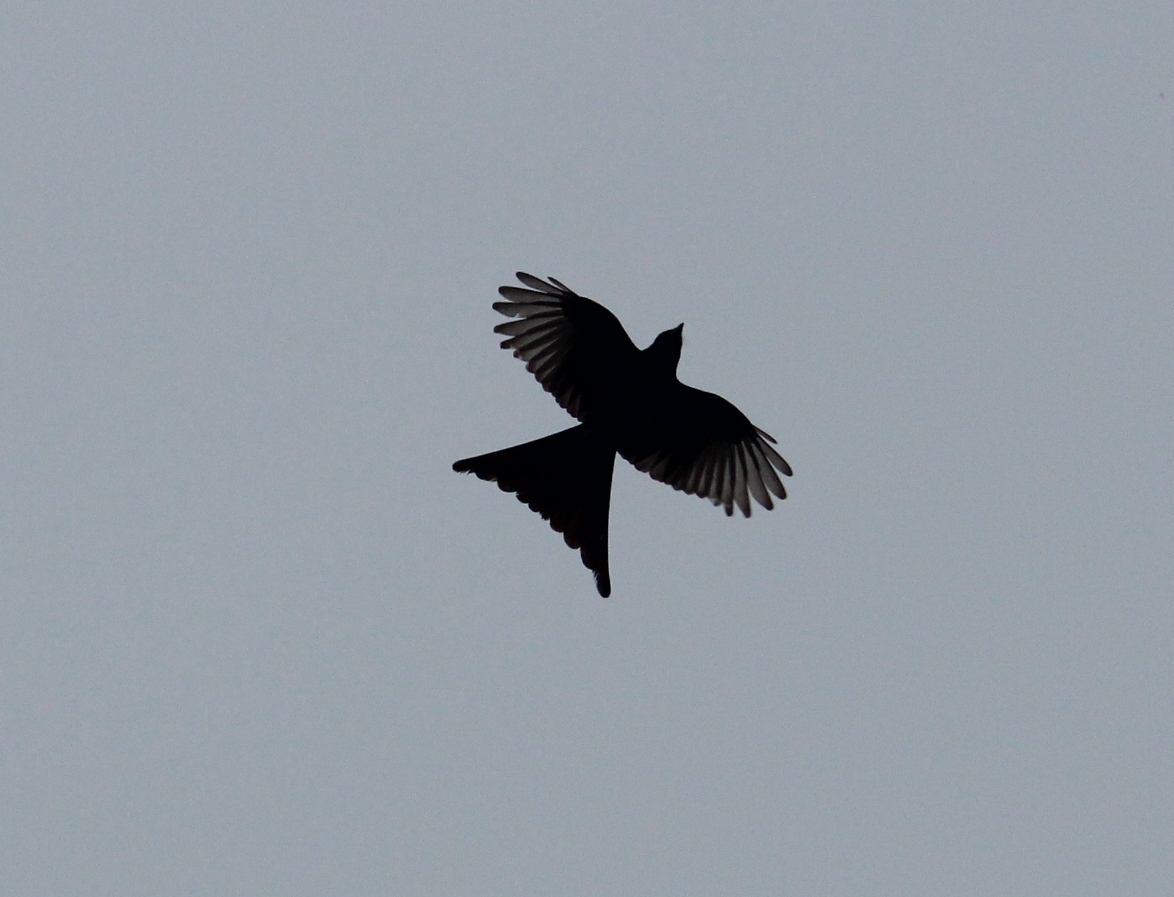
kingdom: Animalia
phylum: Chordata
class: Aves
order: Passeriformes
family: Dicruridae
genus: Dicrurus
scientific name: Dicrurus macrocercus
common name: Black drongo
